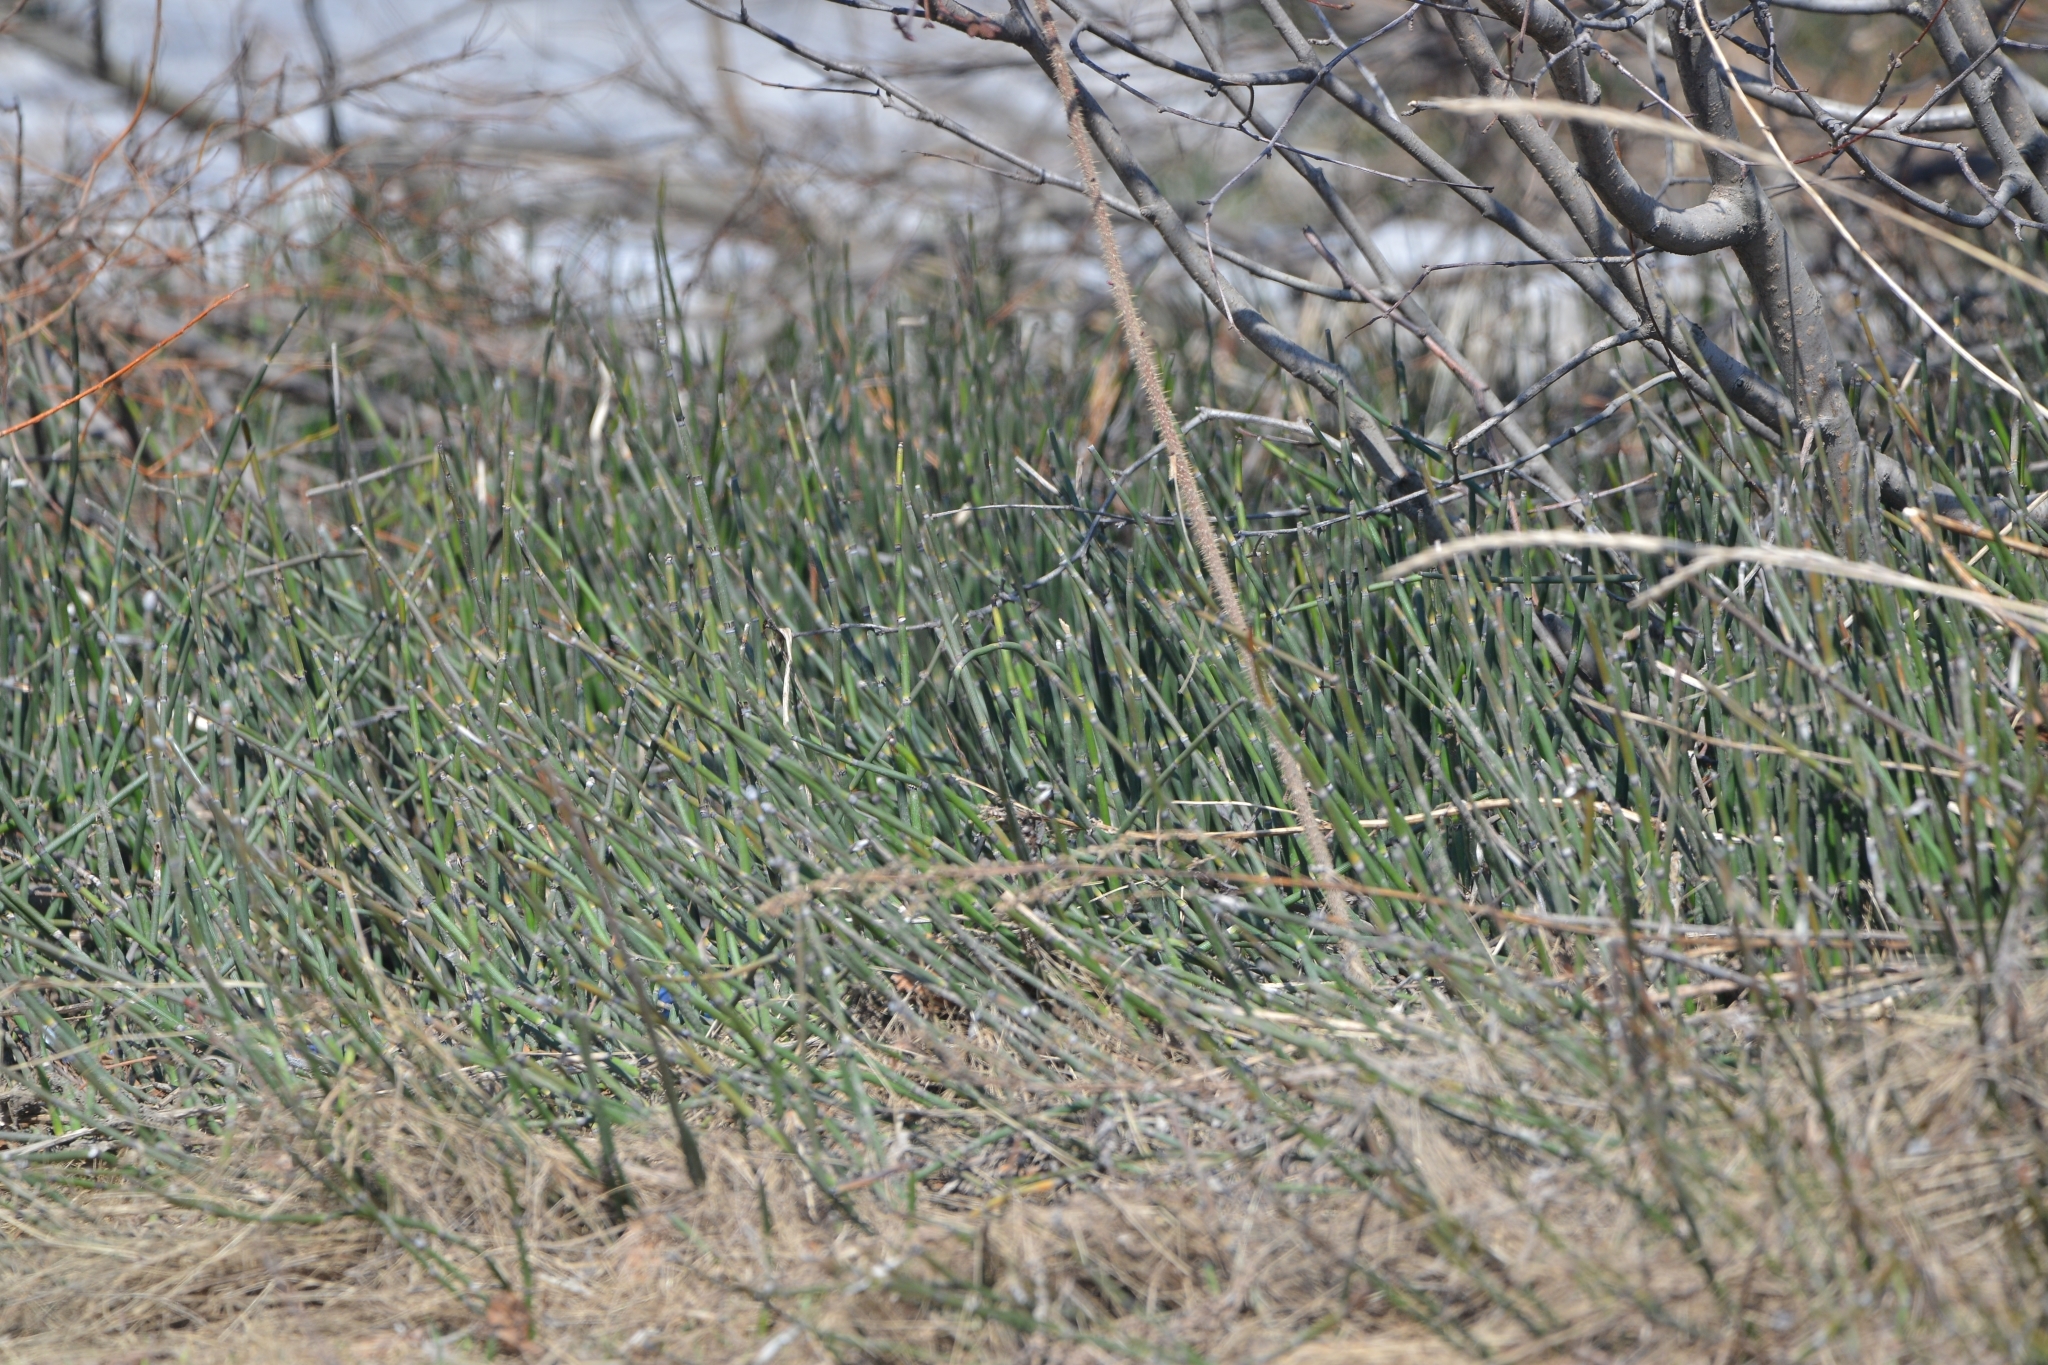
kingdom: Plantae
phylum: Tracheophyta
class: Polypodiopsida
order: Equisetales
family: Equisetaceae
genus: Equisetum
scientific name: Equisetum hyemale
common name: Rough horsetail
